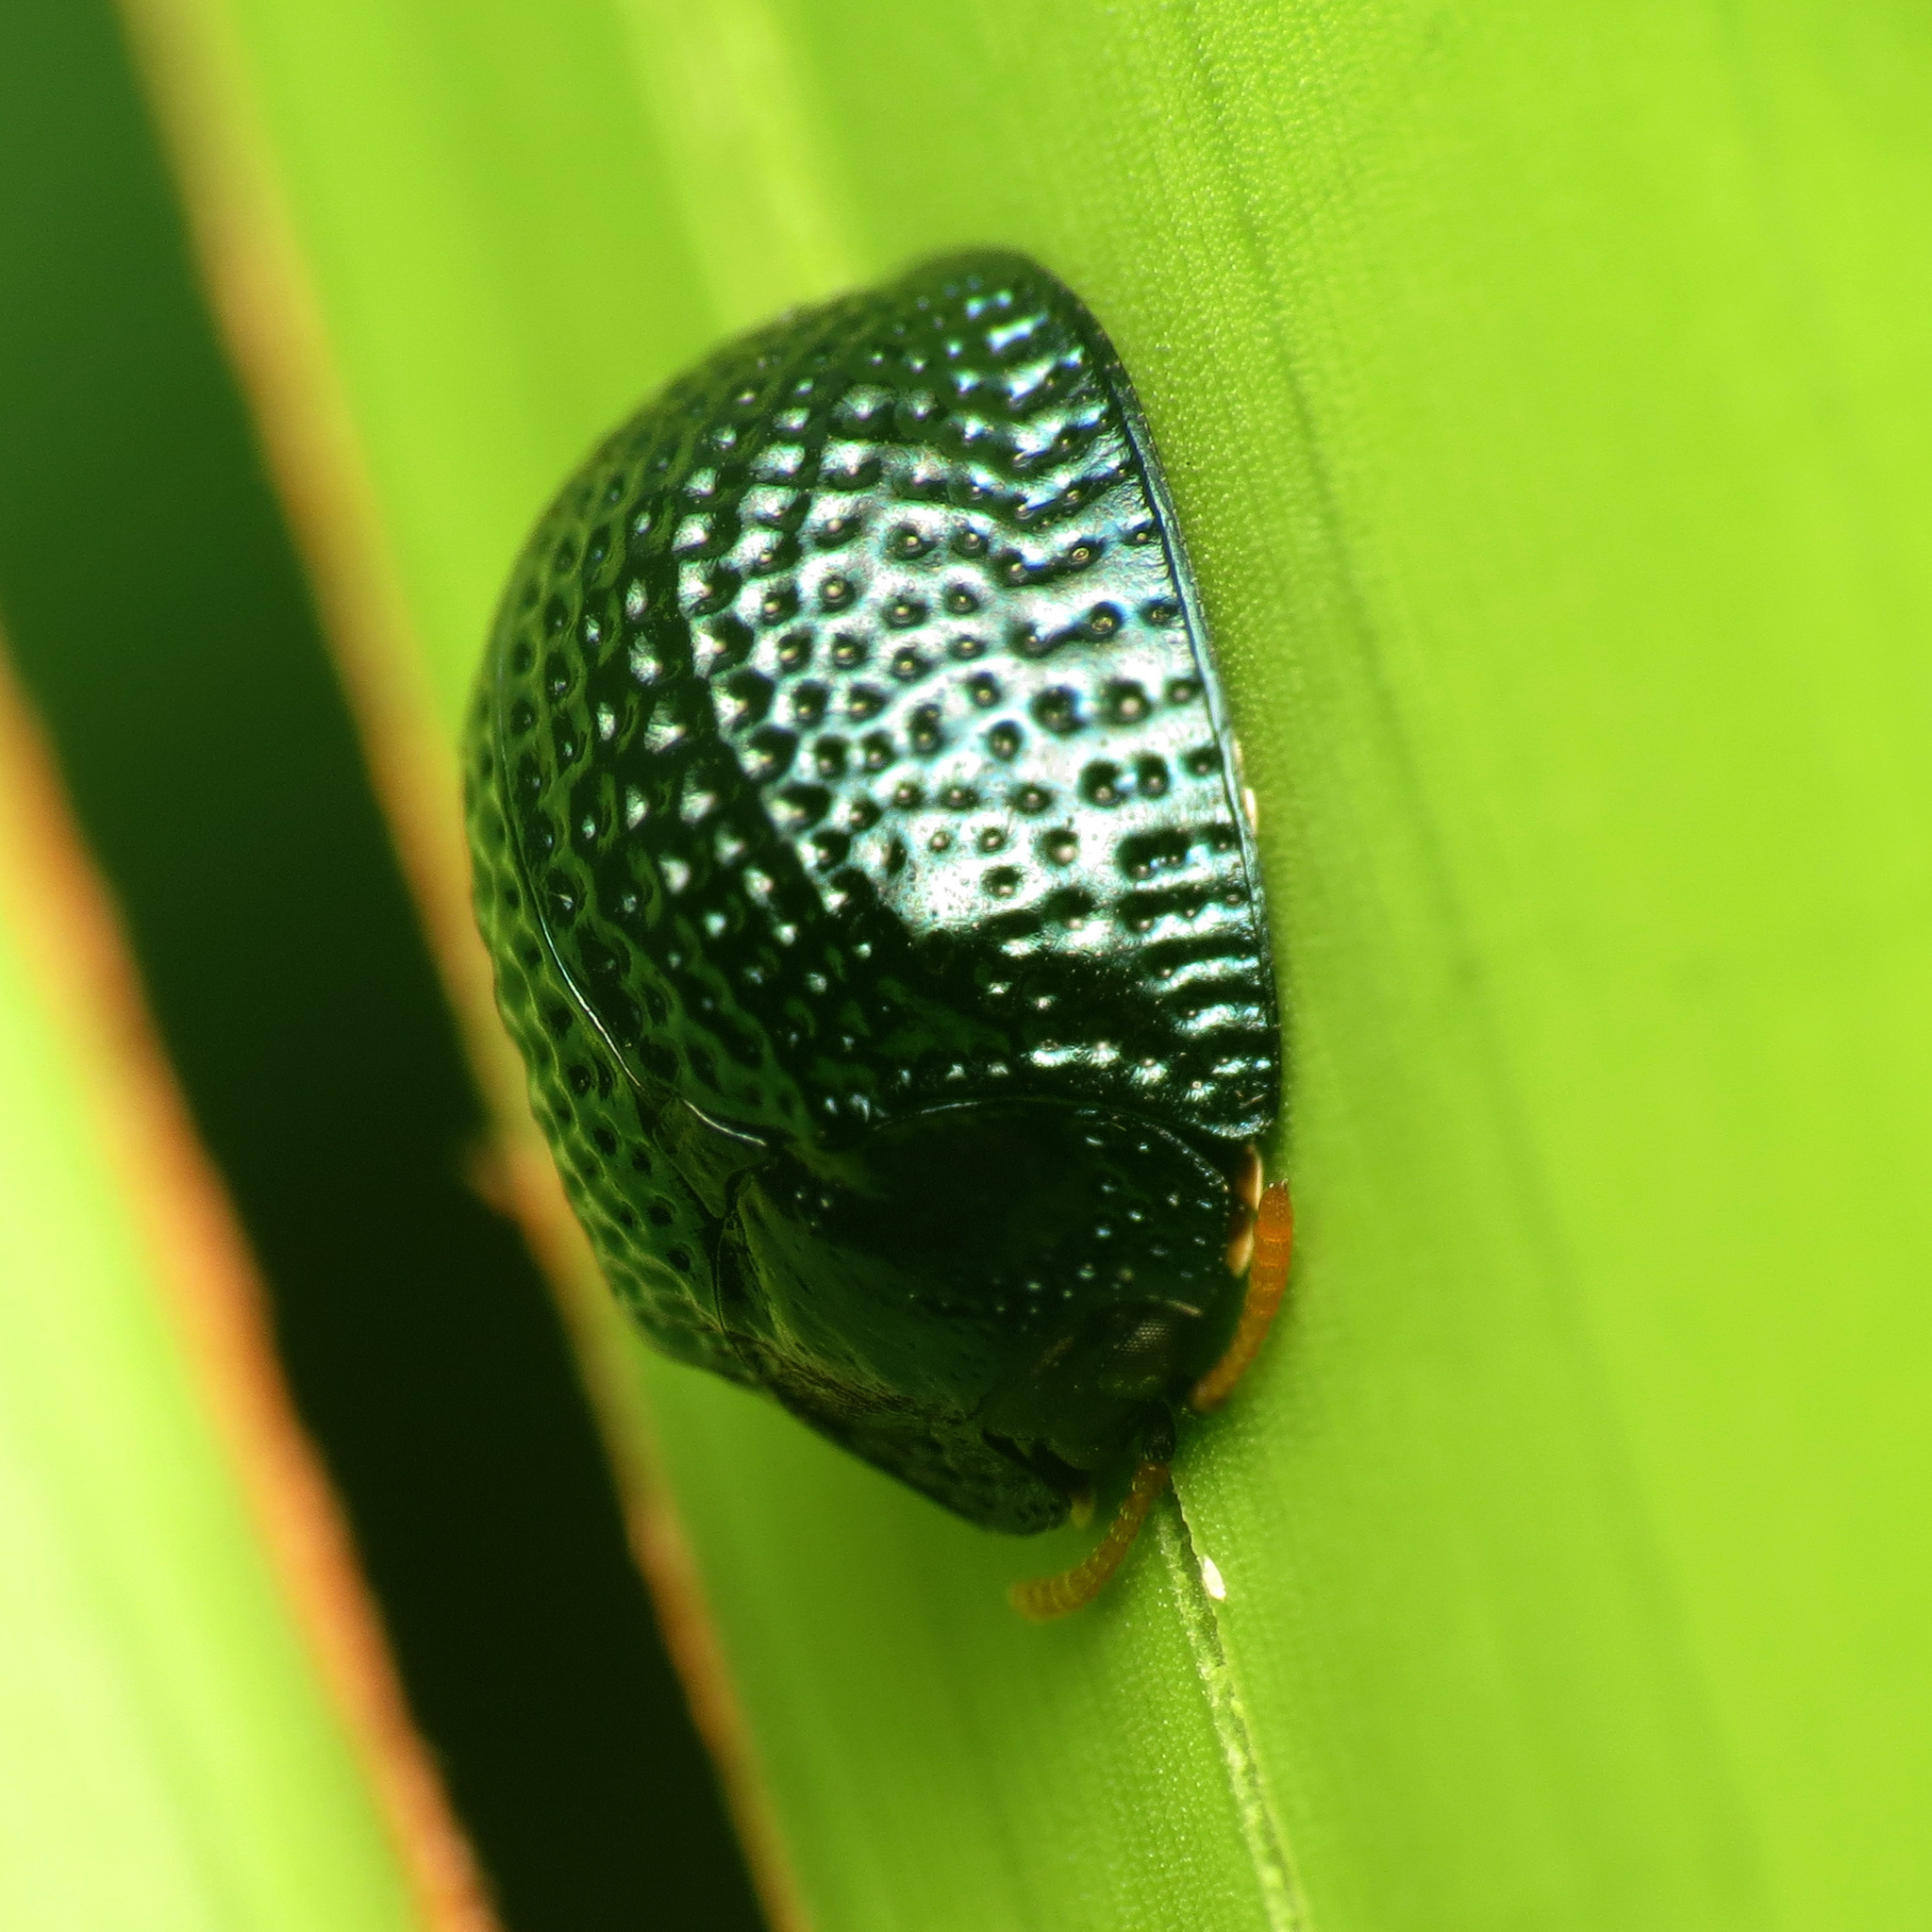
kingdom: Animalia
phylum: Arthropoda
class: Insecta
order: Coleoptera
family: Chrysomelidae
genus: Hemisphaerota
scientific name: Hemisphaerota cyanea
